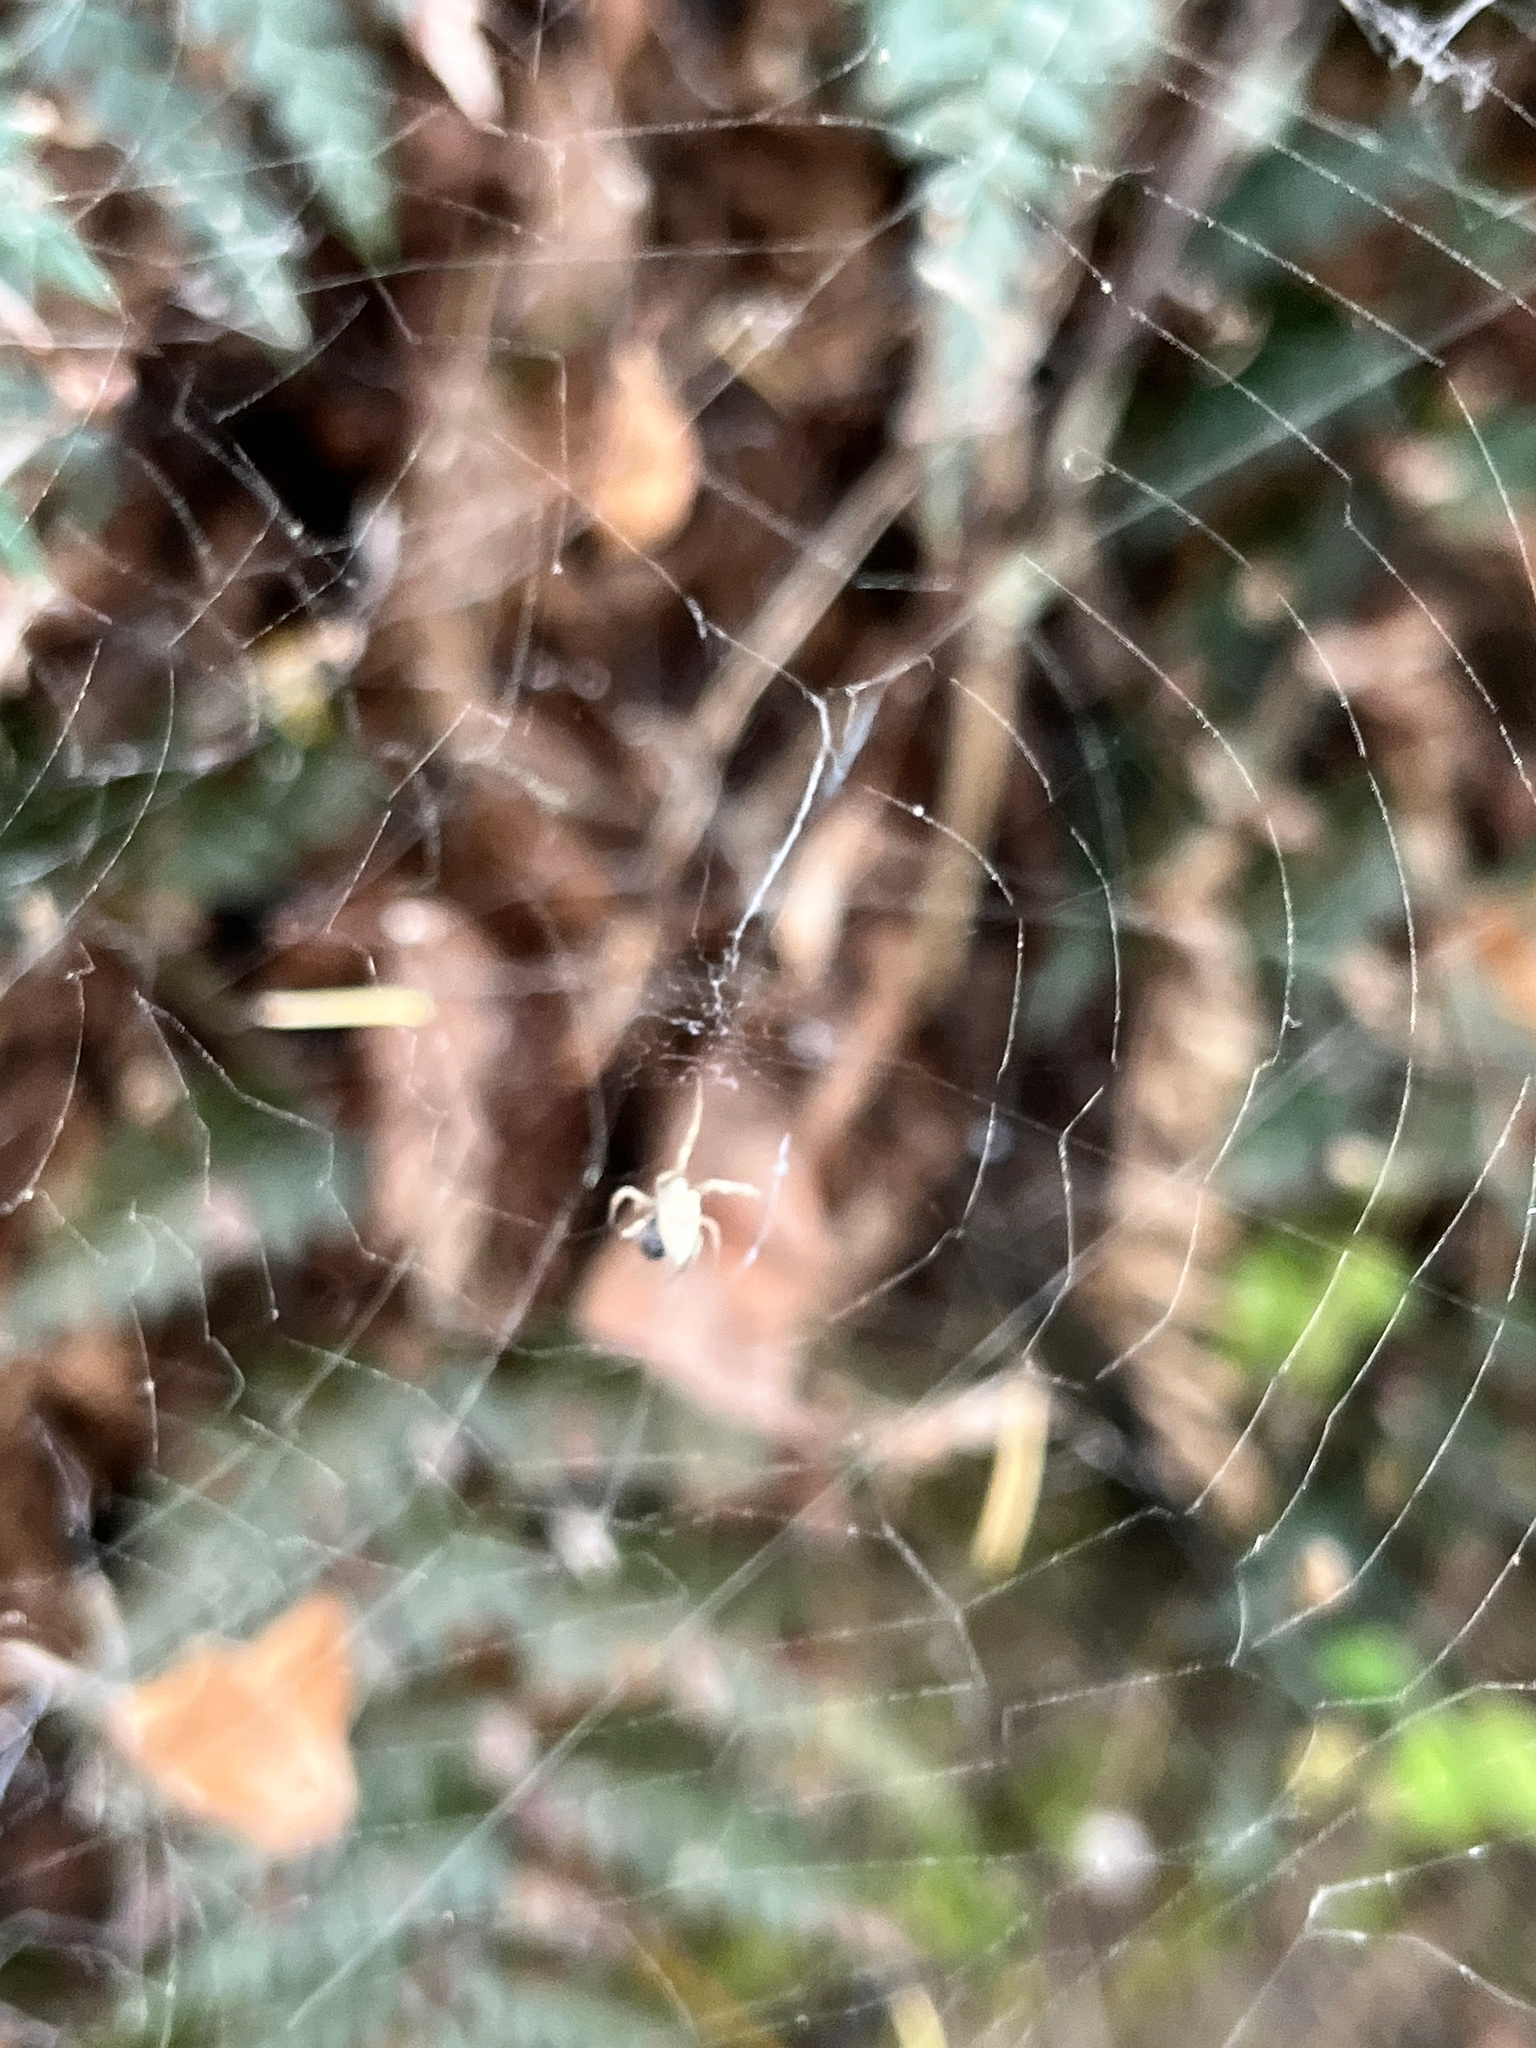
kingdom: Animalia
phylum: Arthropoda
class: Arachnida
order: Araneae
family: Uloboridae
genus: Philoponella
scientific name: Philoponella congregabilis
